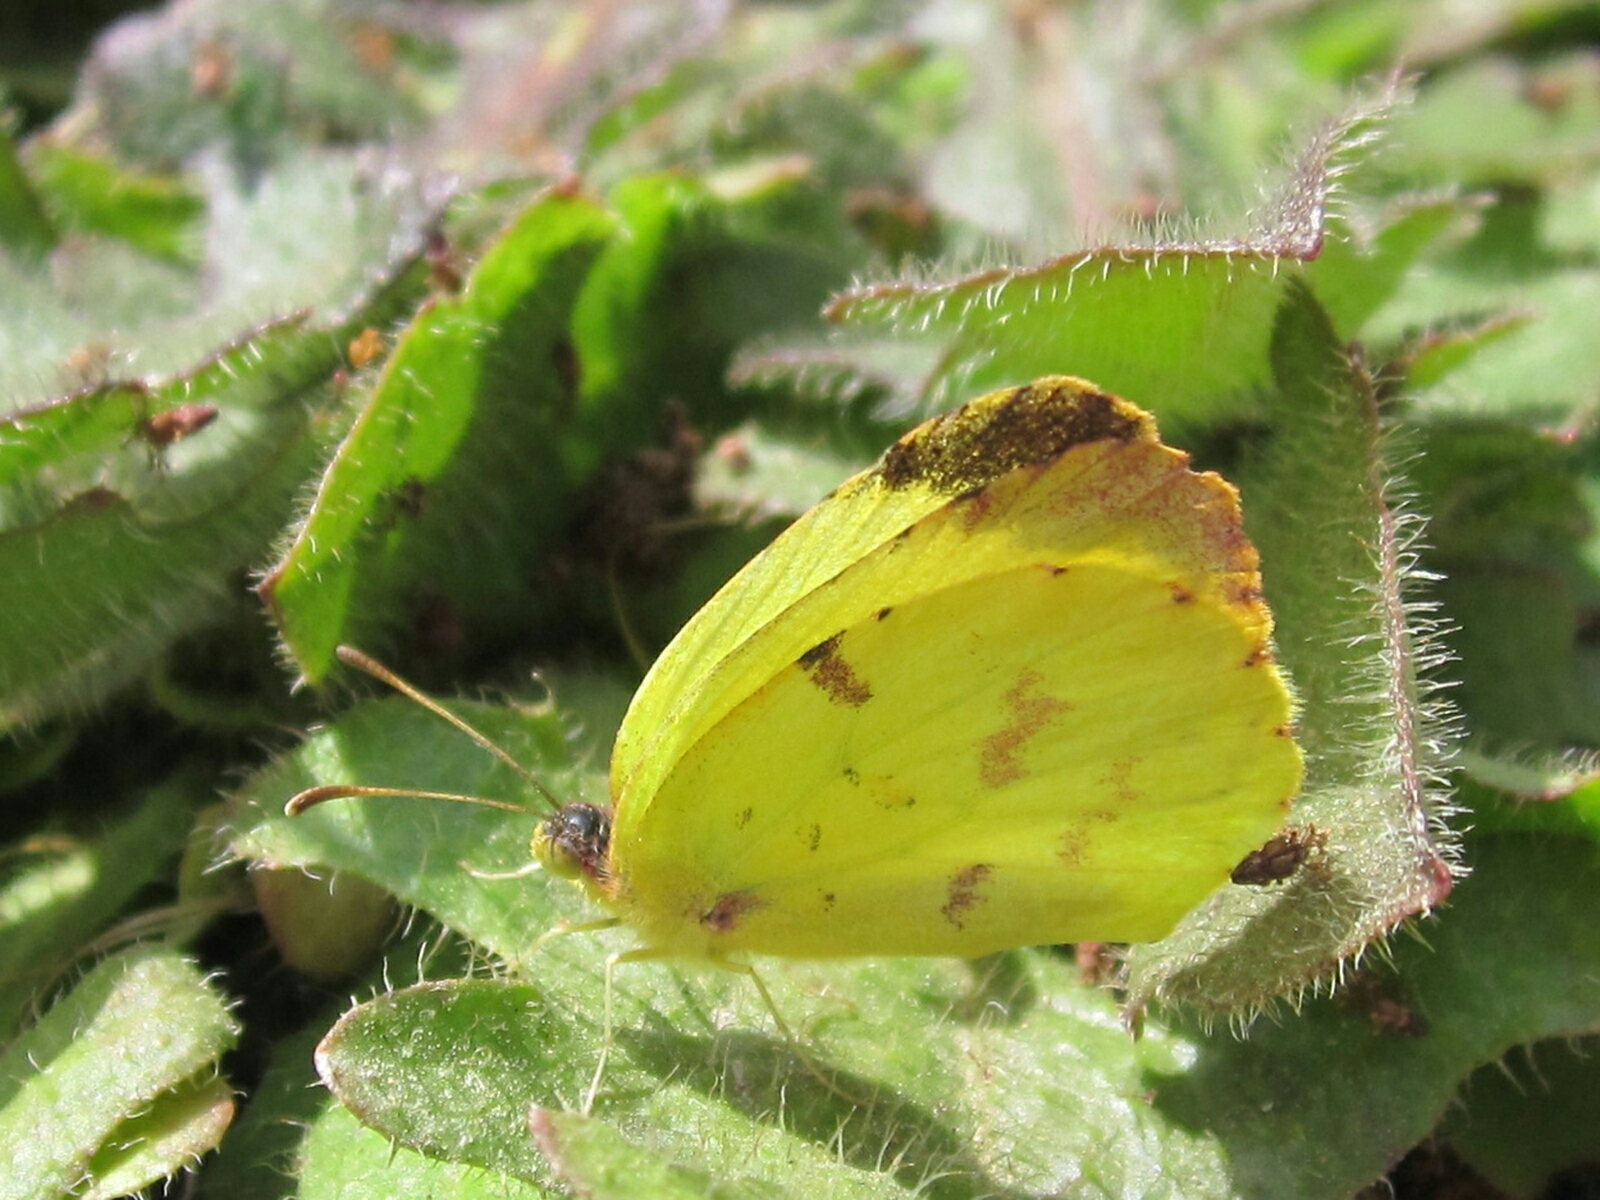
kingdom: Animalia
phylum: Arthropoda
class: Insecta
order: Lepidoptera
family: Pieridae
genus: Teriocolias
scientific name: Teriocolias
